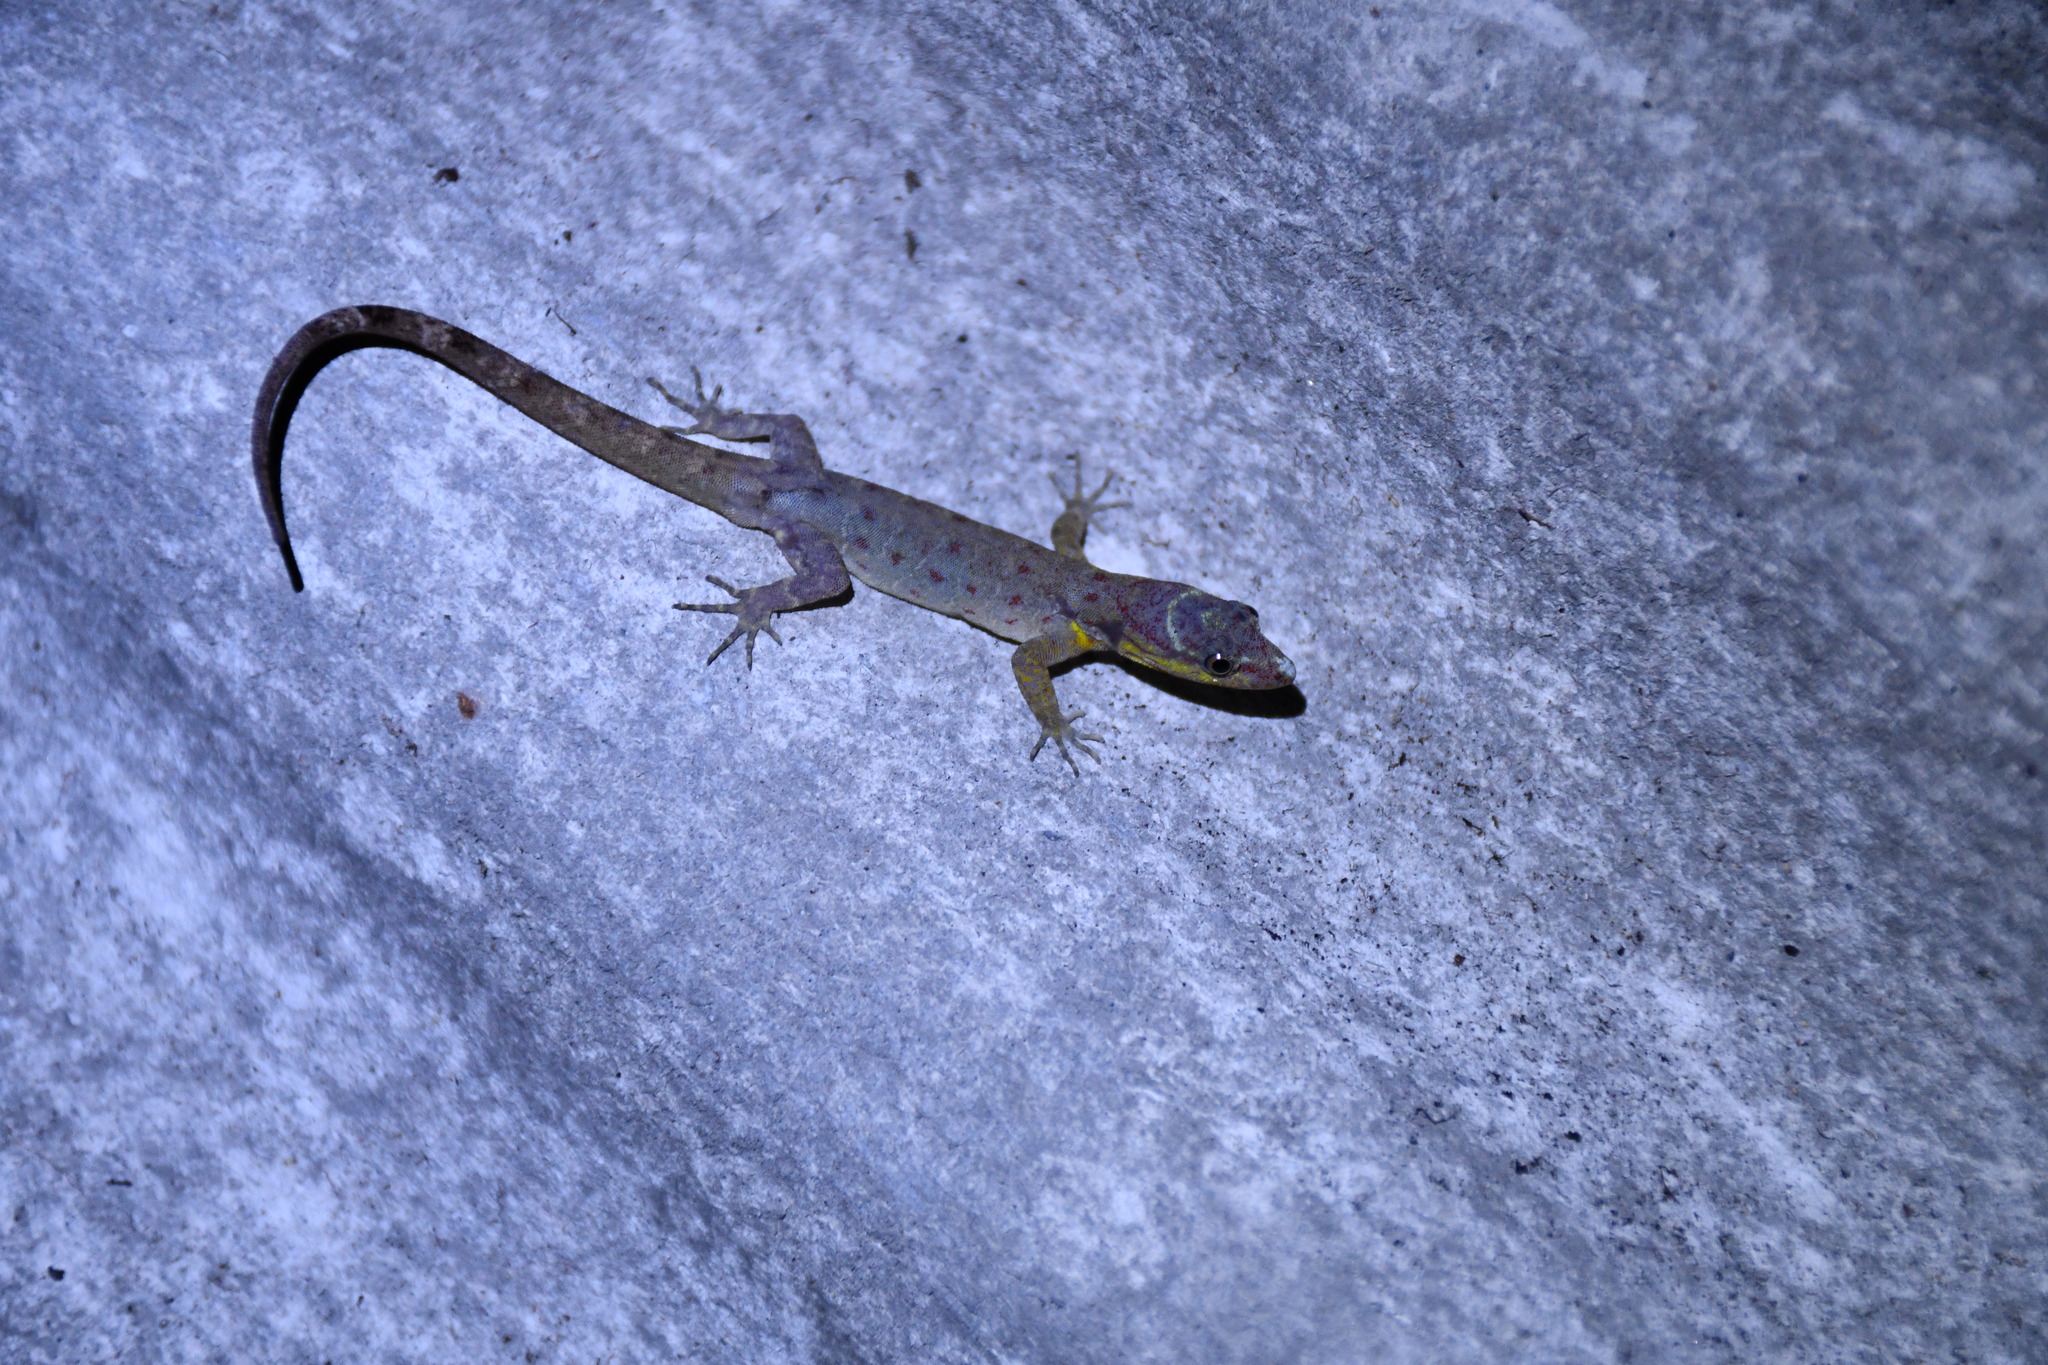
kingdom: Animalia
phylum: Chordata
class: Squamata
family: Sphaerodactylidae
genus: Gonatodes
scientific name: Gonatodes humeralis
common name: South american clawed gecko
